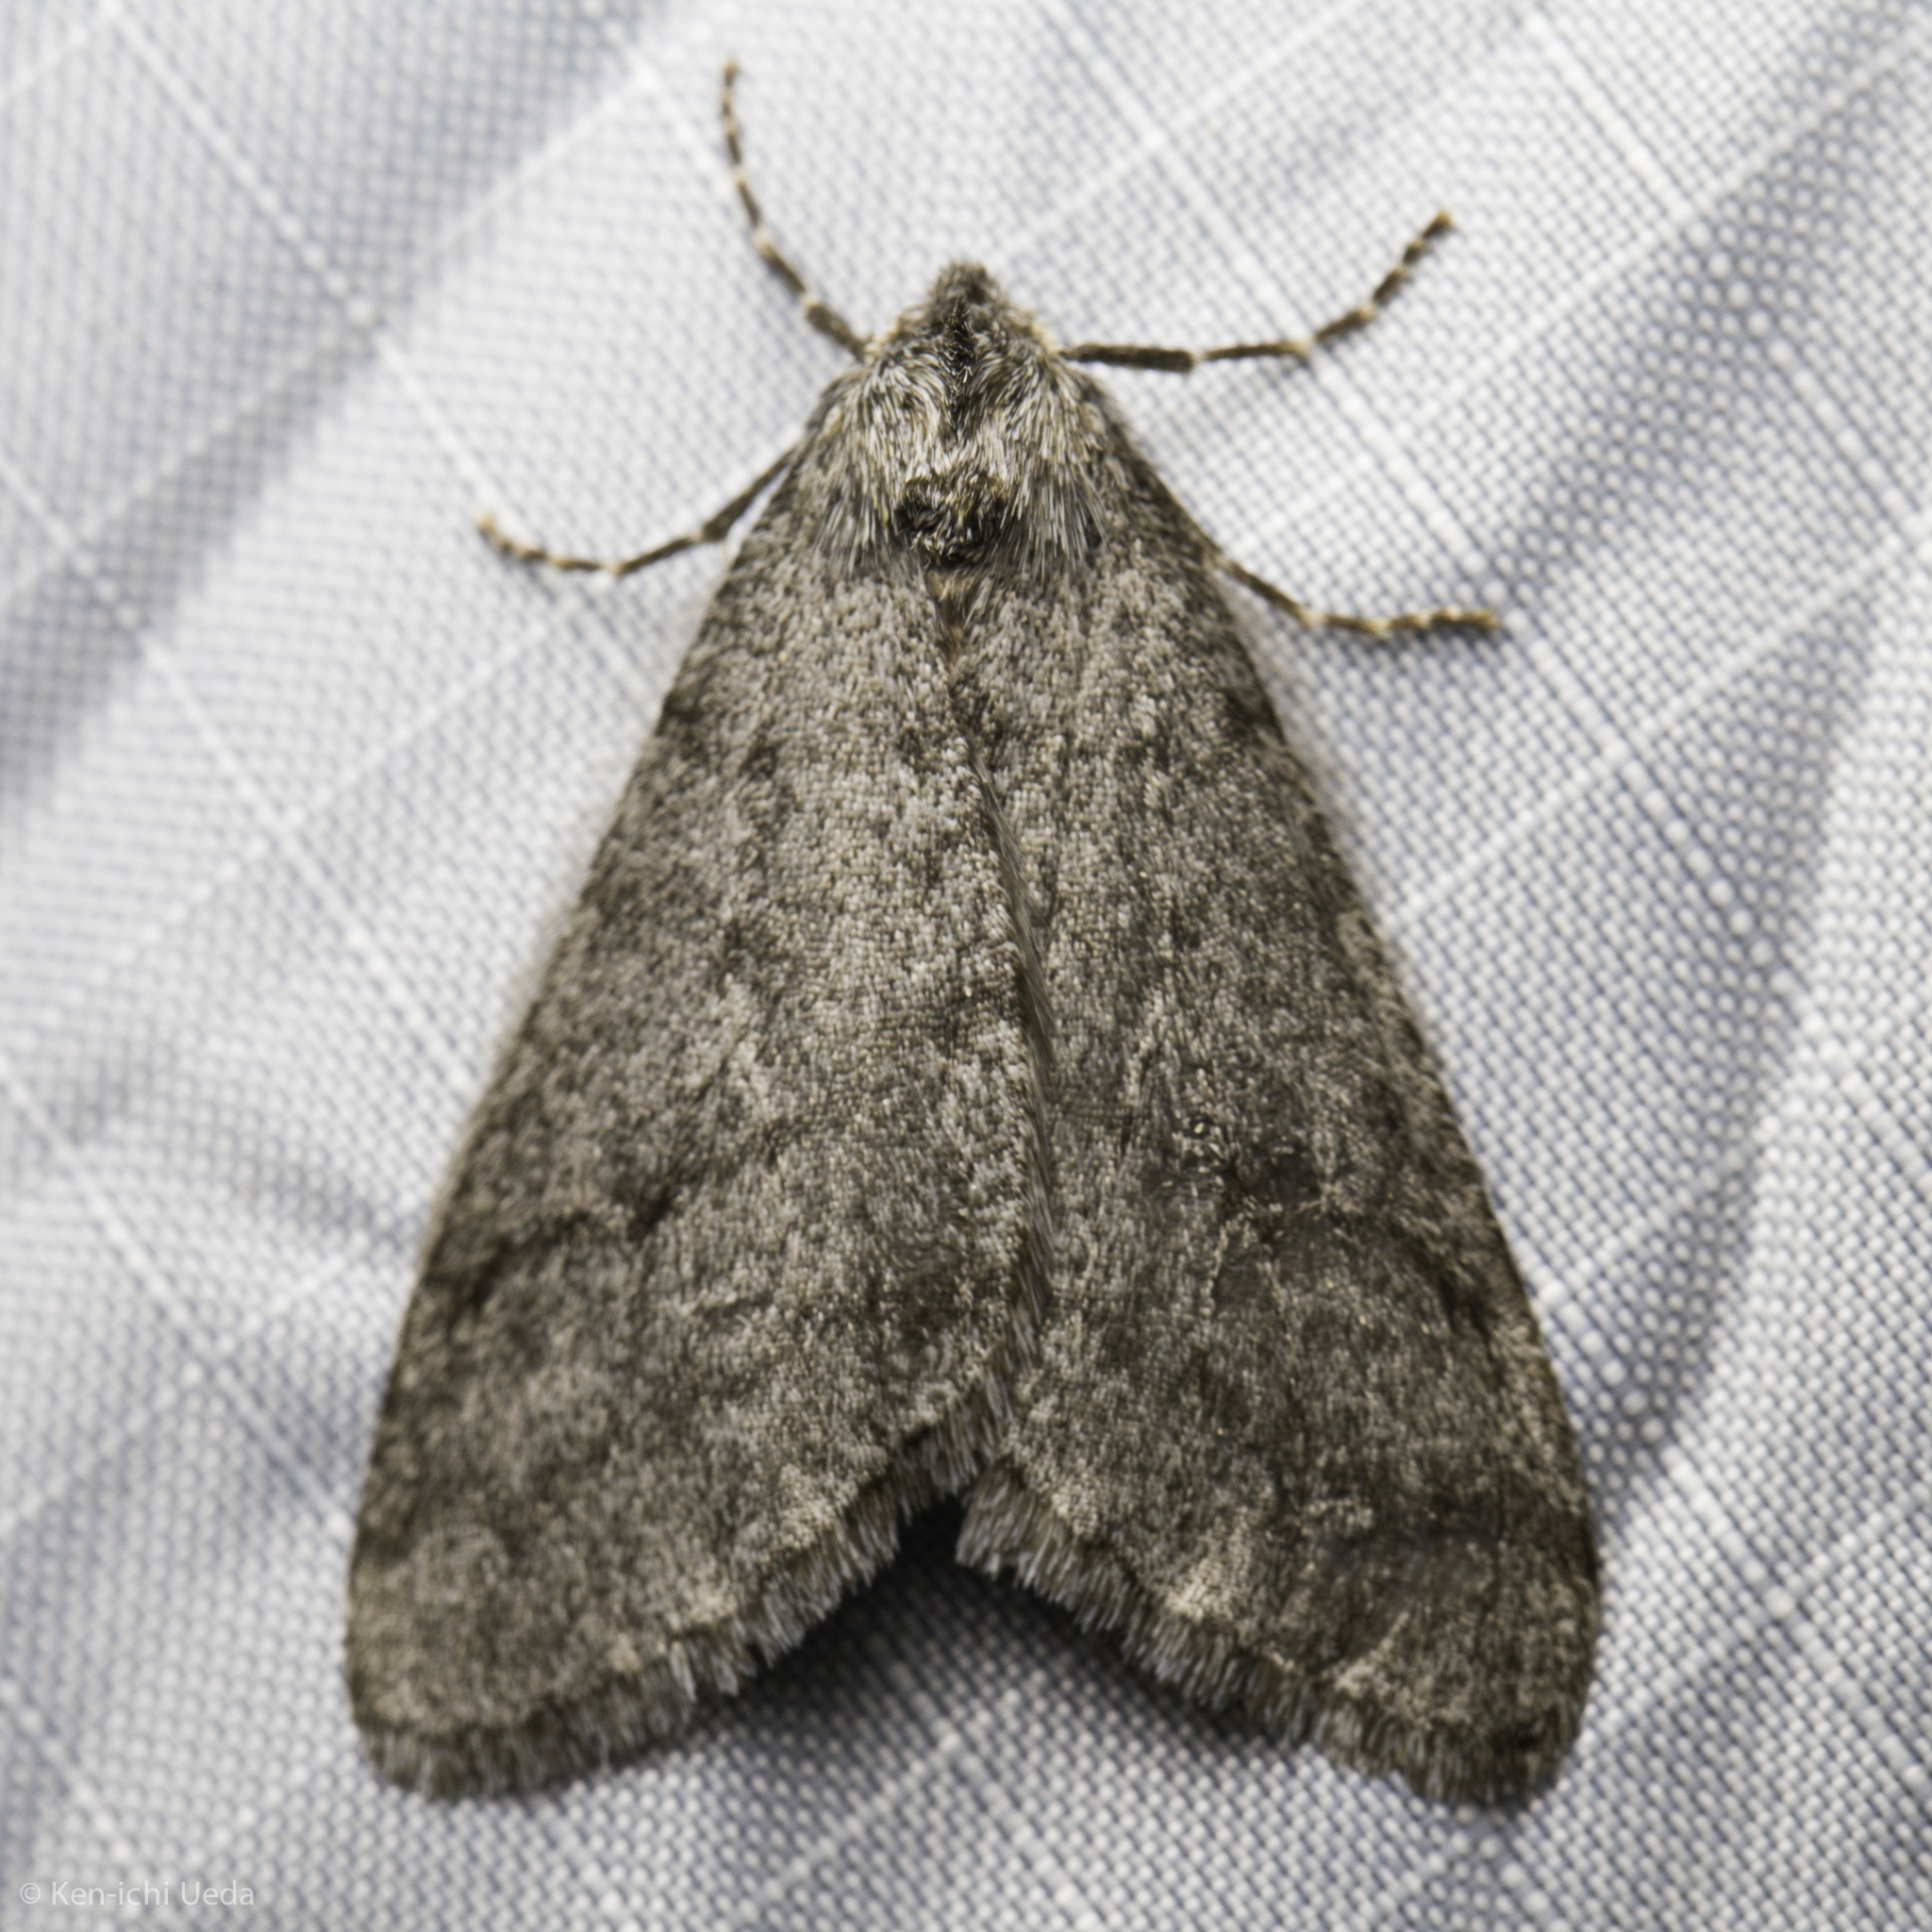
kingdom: Animalia
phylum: Arthropoda
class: Insecta
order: Lepidoptera
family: Geometridae
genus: Phigalia
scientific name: Phigalia plumogeraria
